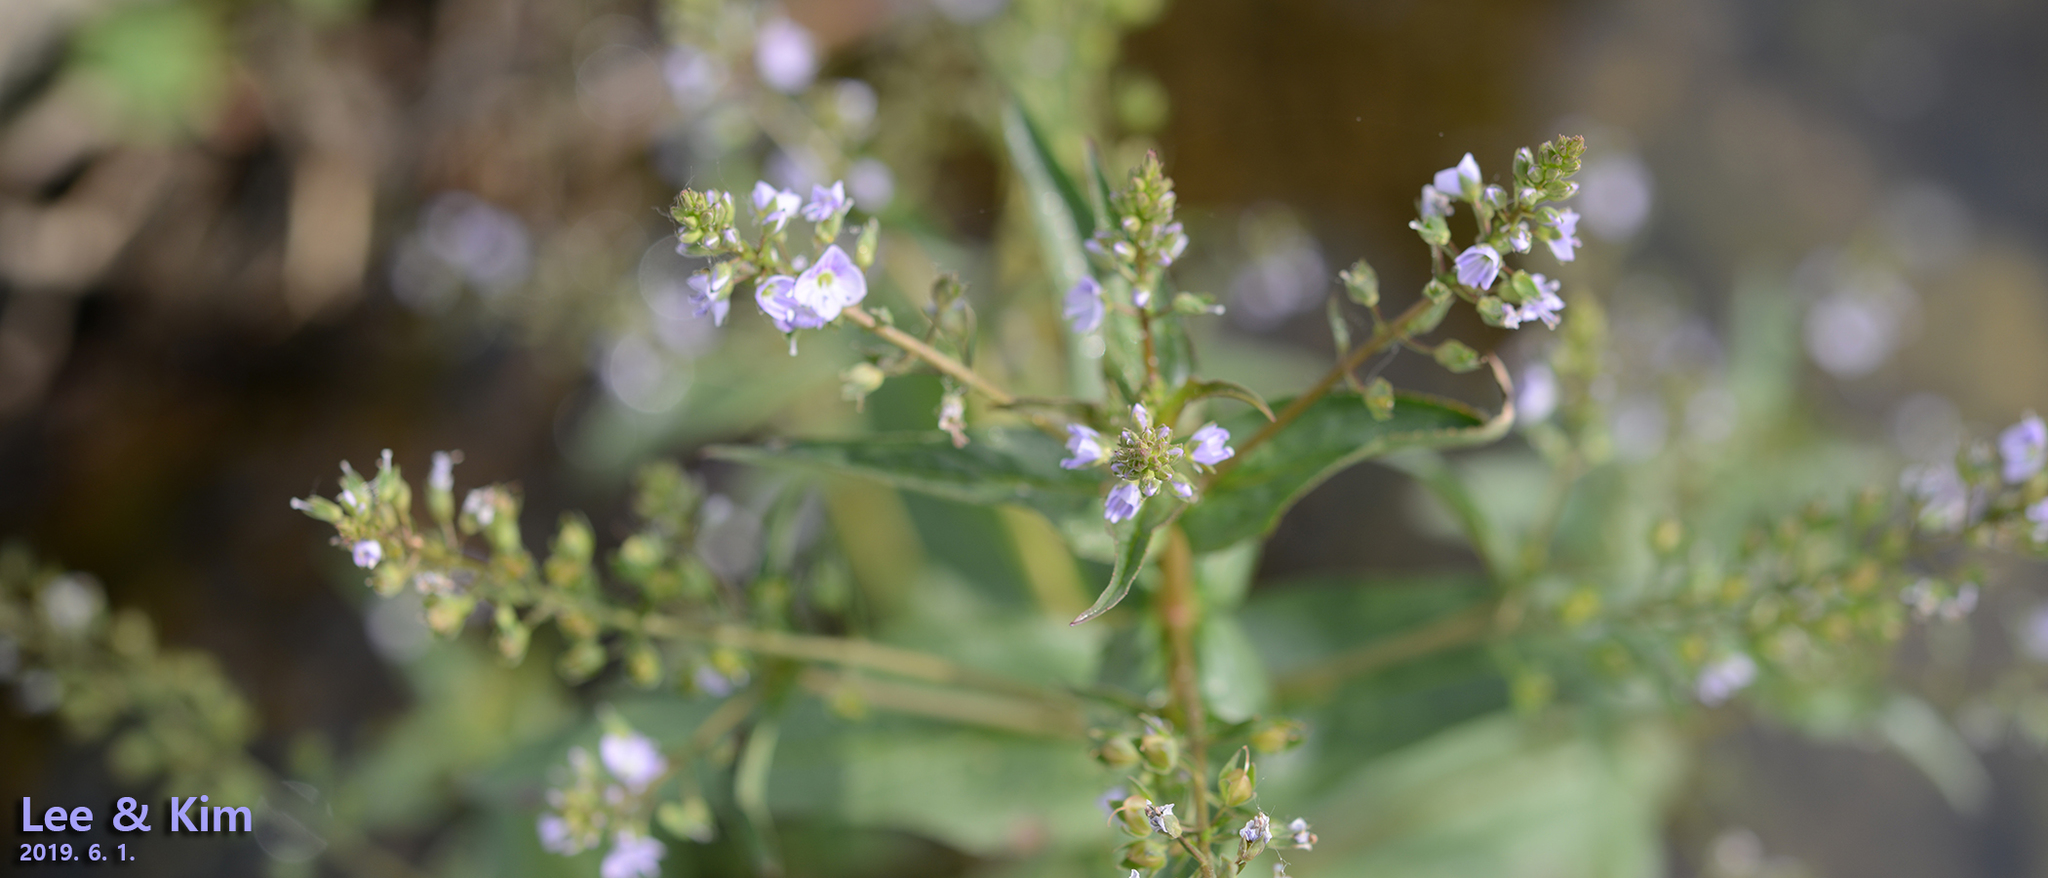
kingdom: Plantae
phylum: Tracheophyta
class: Magnoliopsida
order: Lamiales
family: Plantaginaceae
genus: Veronica
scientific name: Veronica undulata
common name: Undulate speedwell
